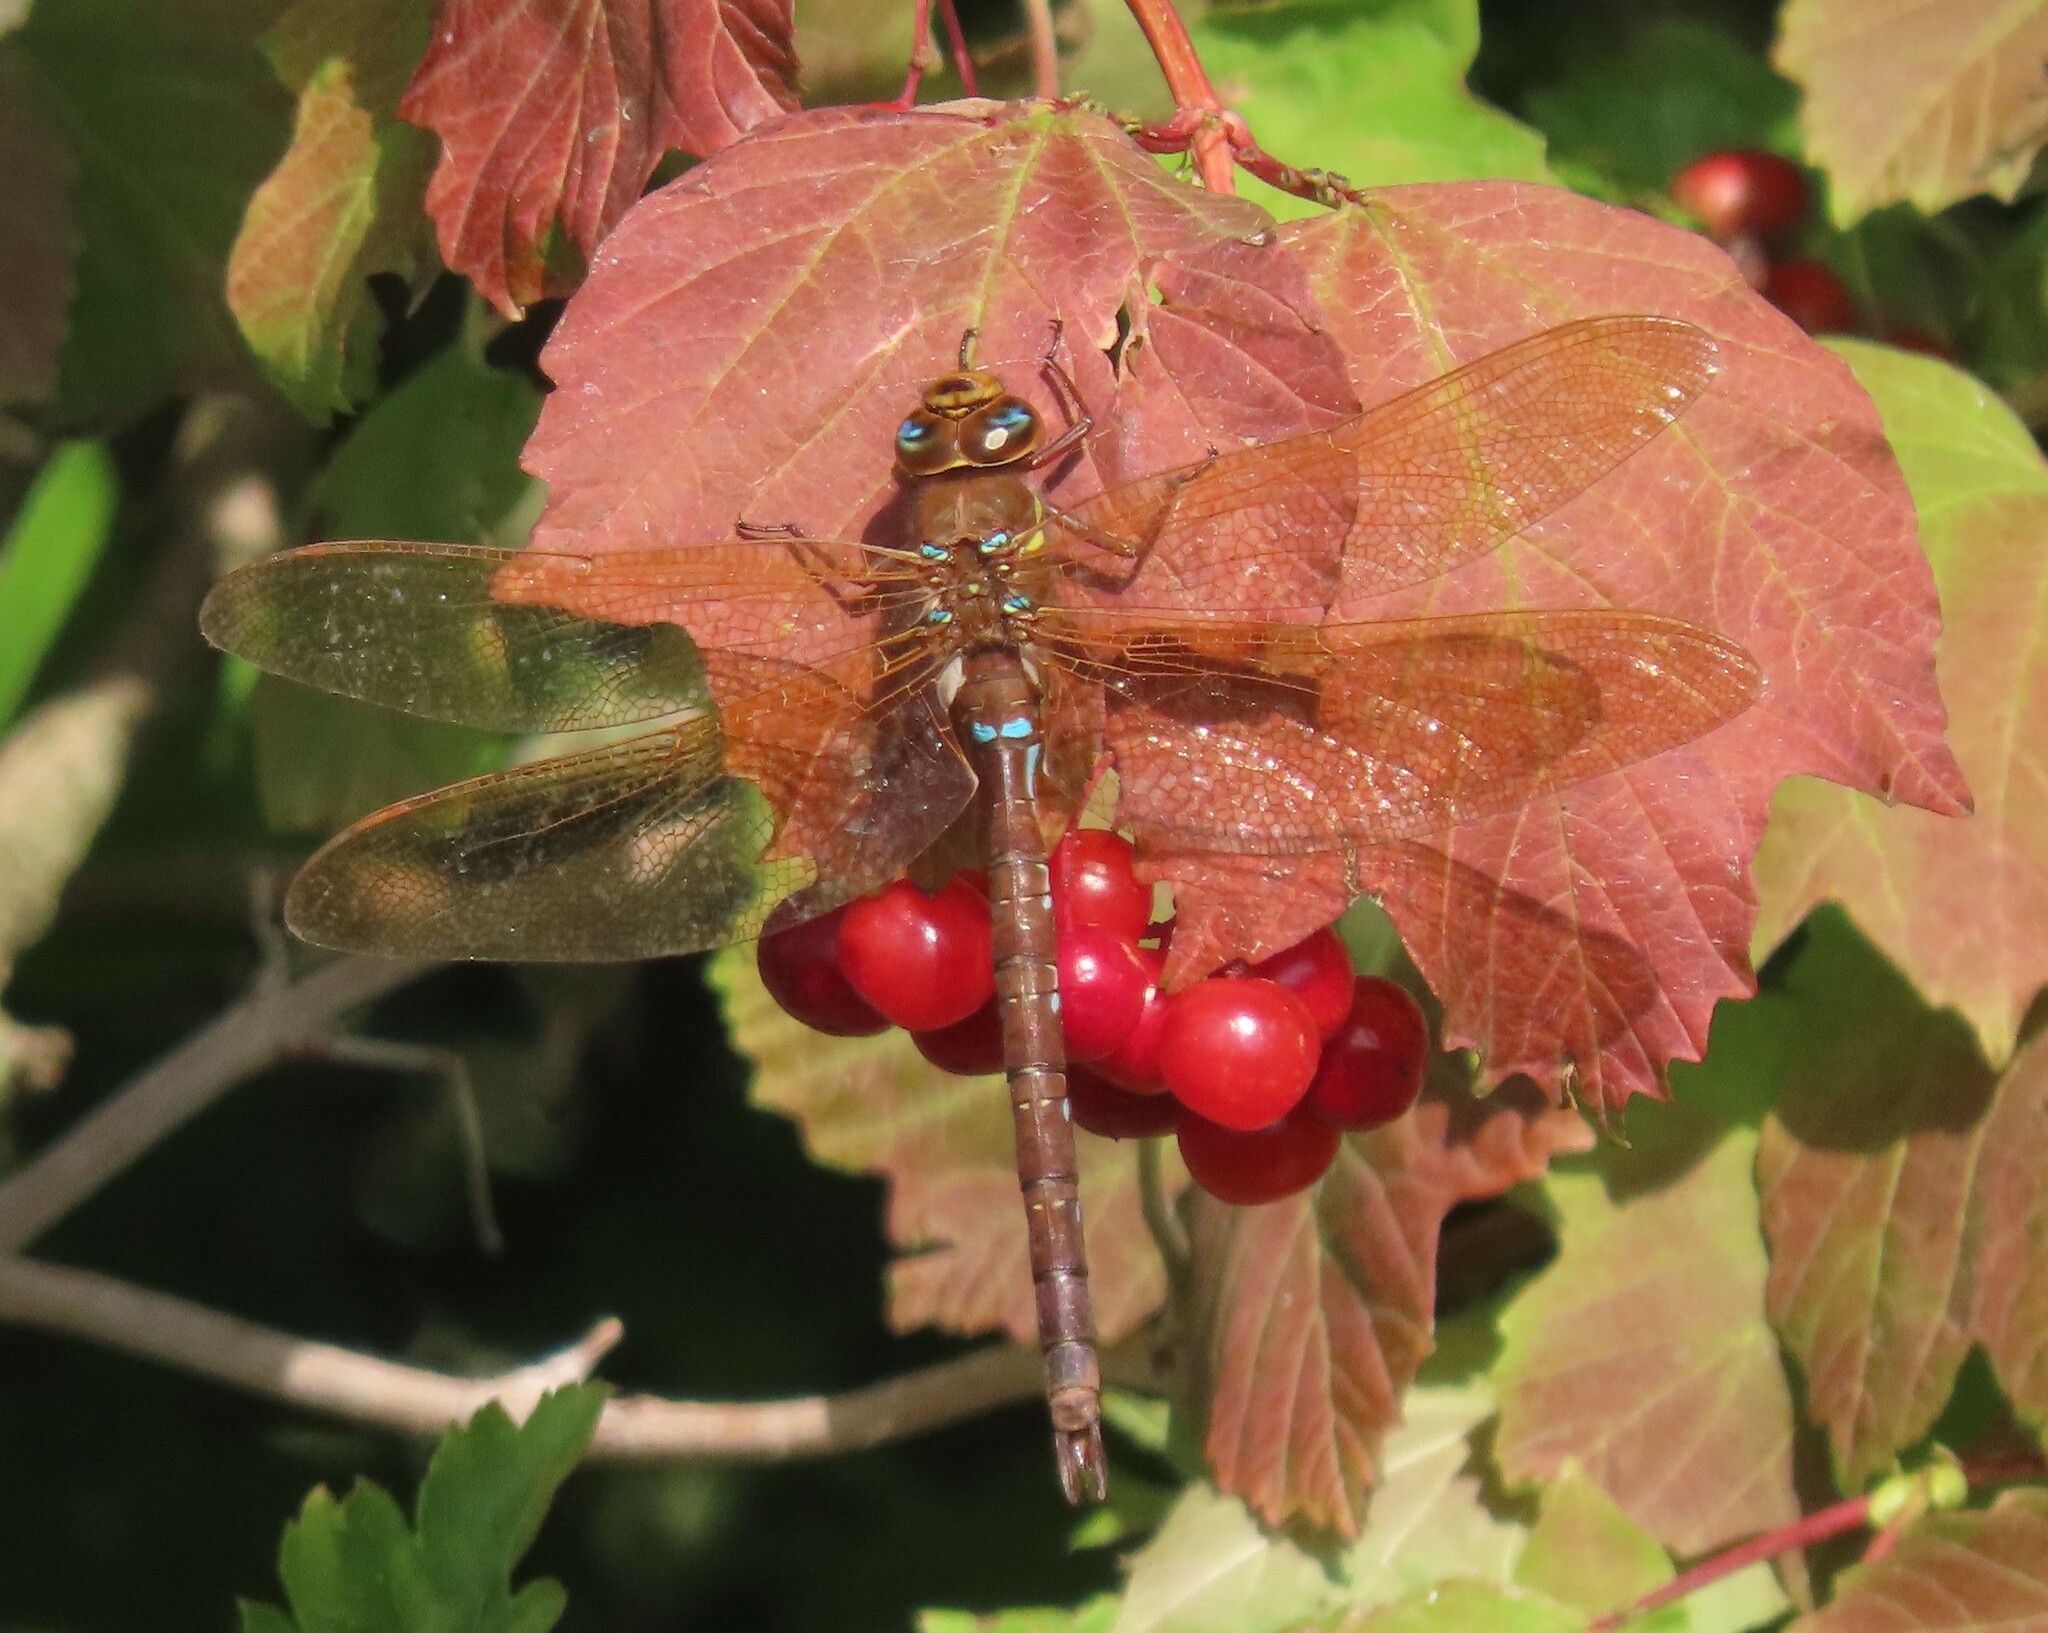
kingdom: Animalia
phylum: Arthropoda
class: Insecta
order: Odonata
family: Aeshnidae
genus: Aeshna
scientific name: Aeshna grandis
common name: Brown hawker
